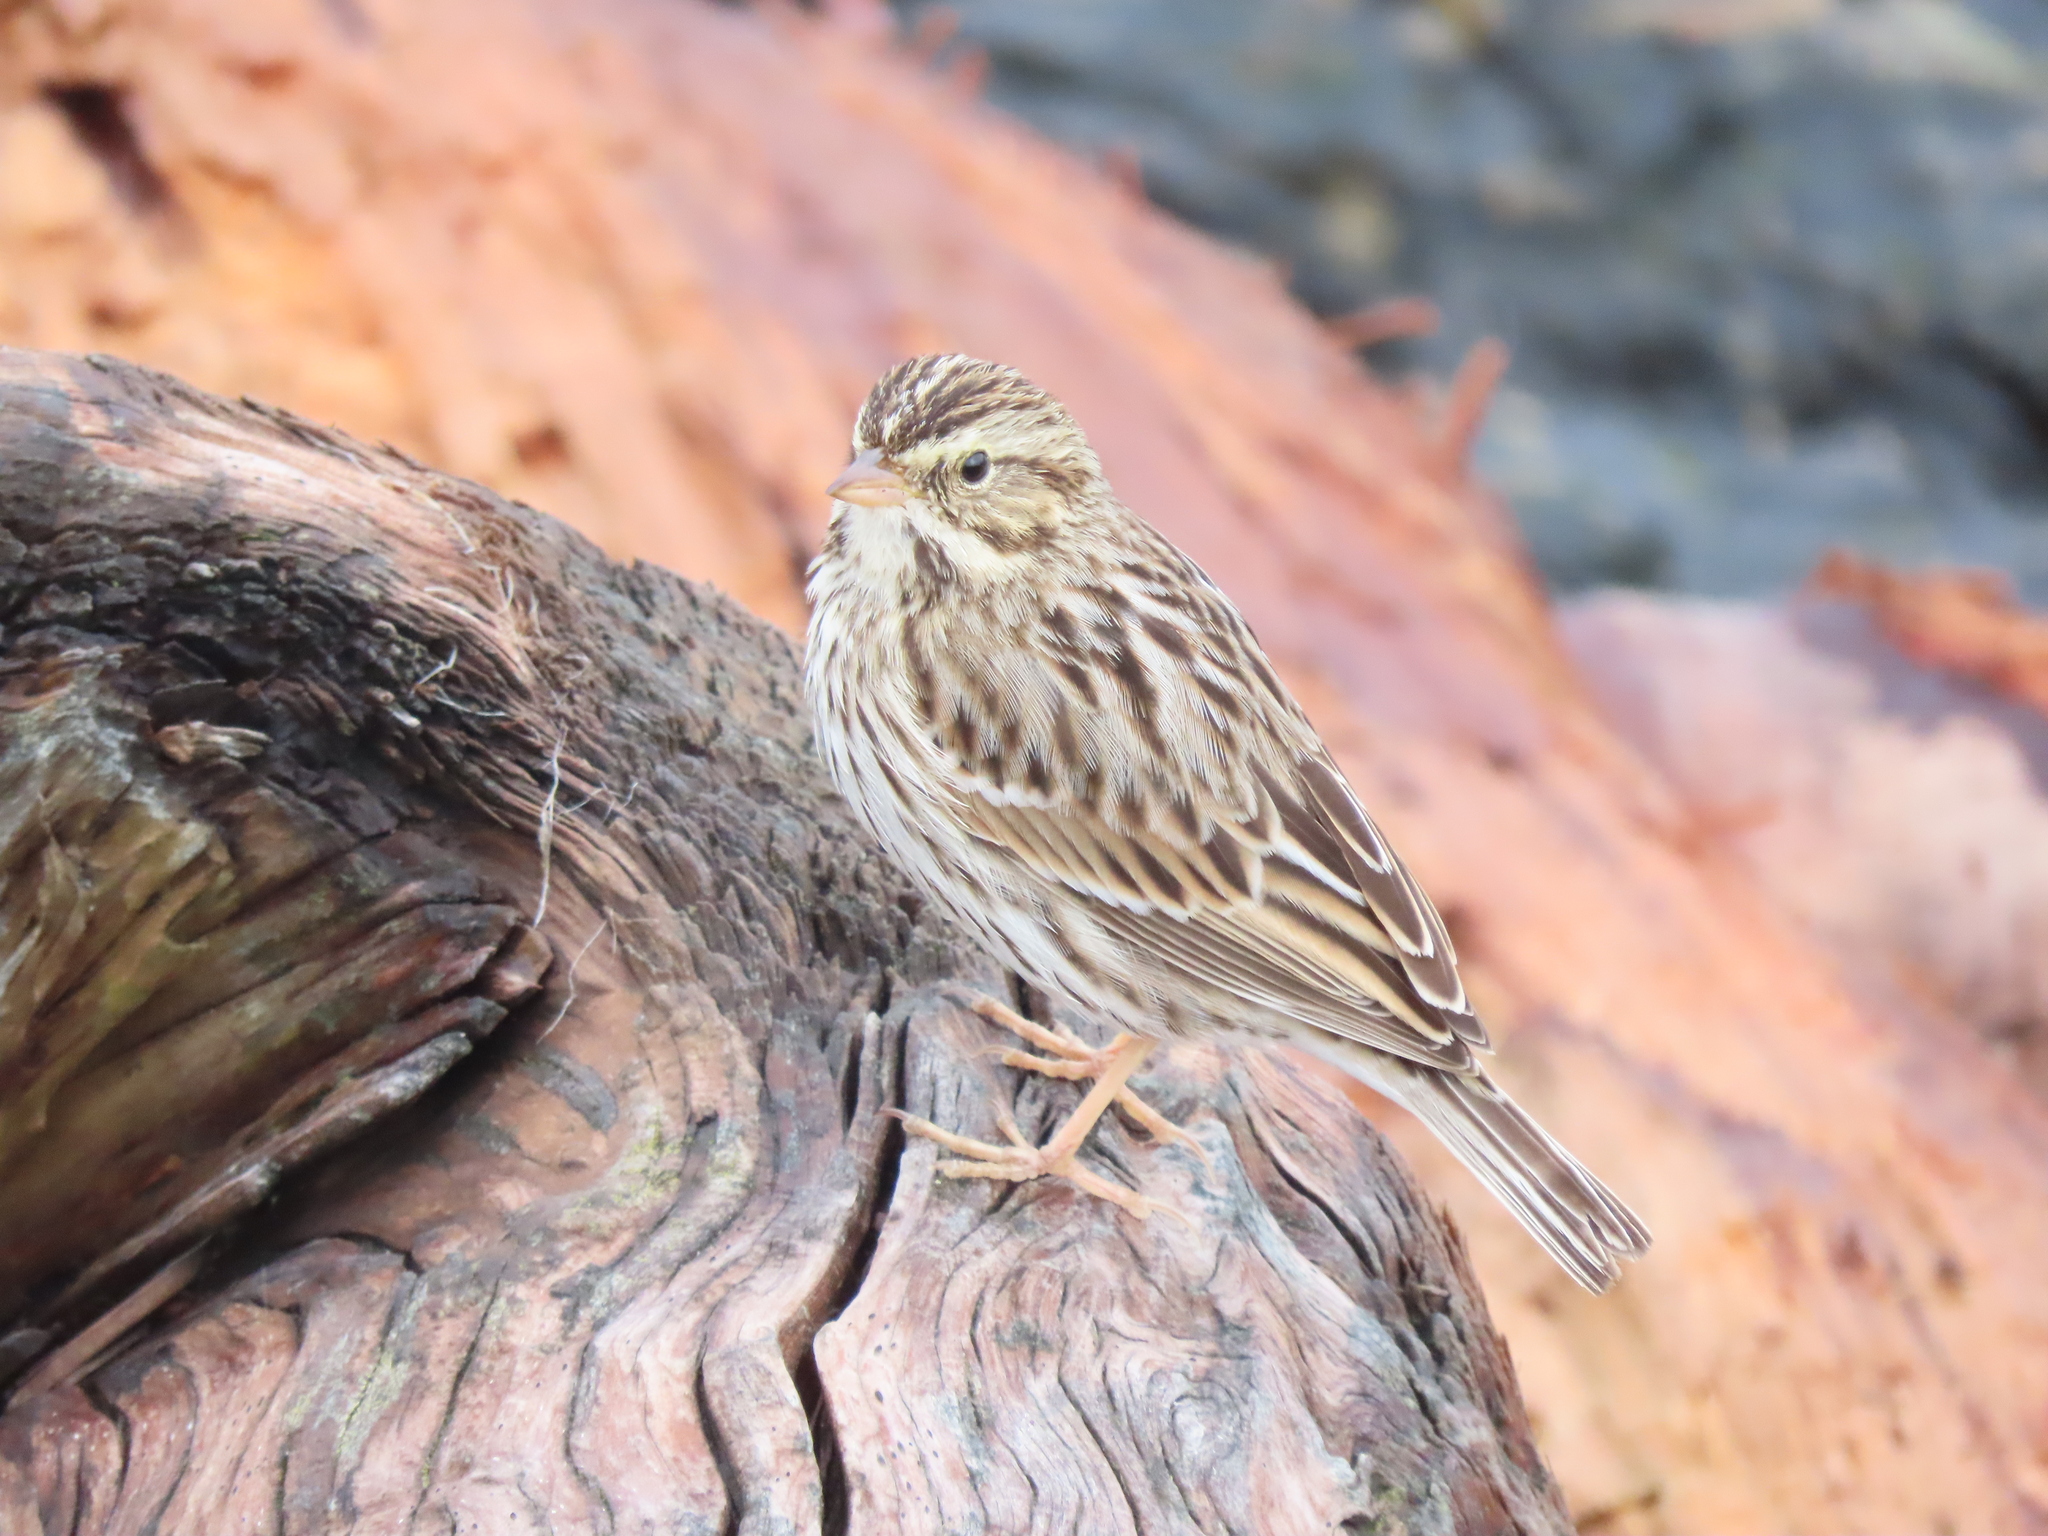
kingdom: Animalia
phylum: Chordata
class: Aves
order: Passeriformes
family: Passerellidae
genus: Passerculus
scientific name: Passerculus sandwichensis
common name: Savannah sparrow
